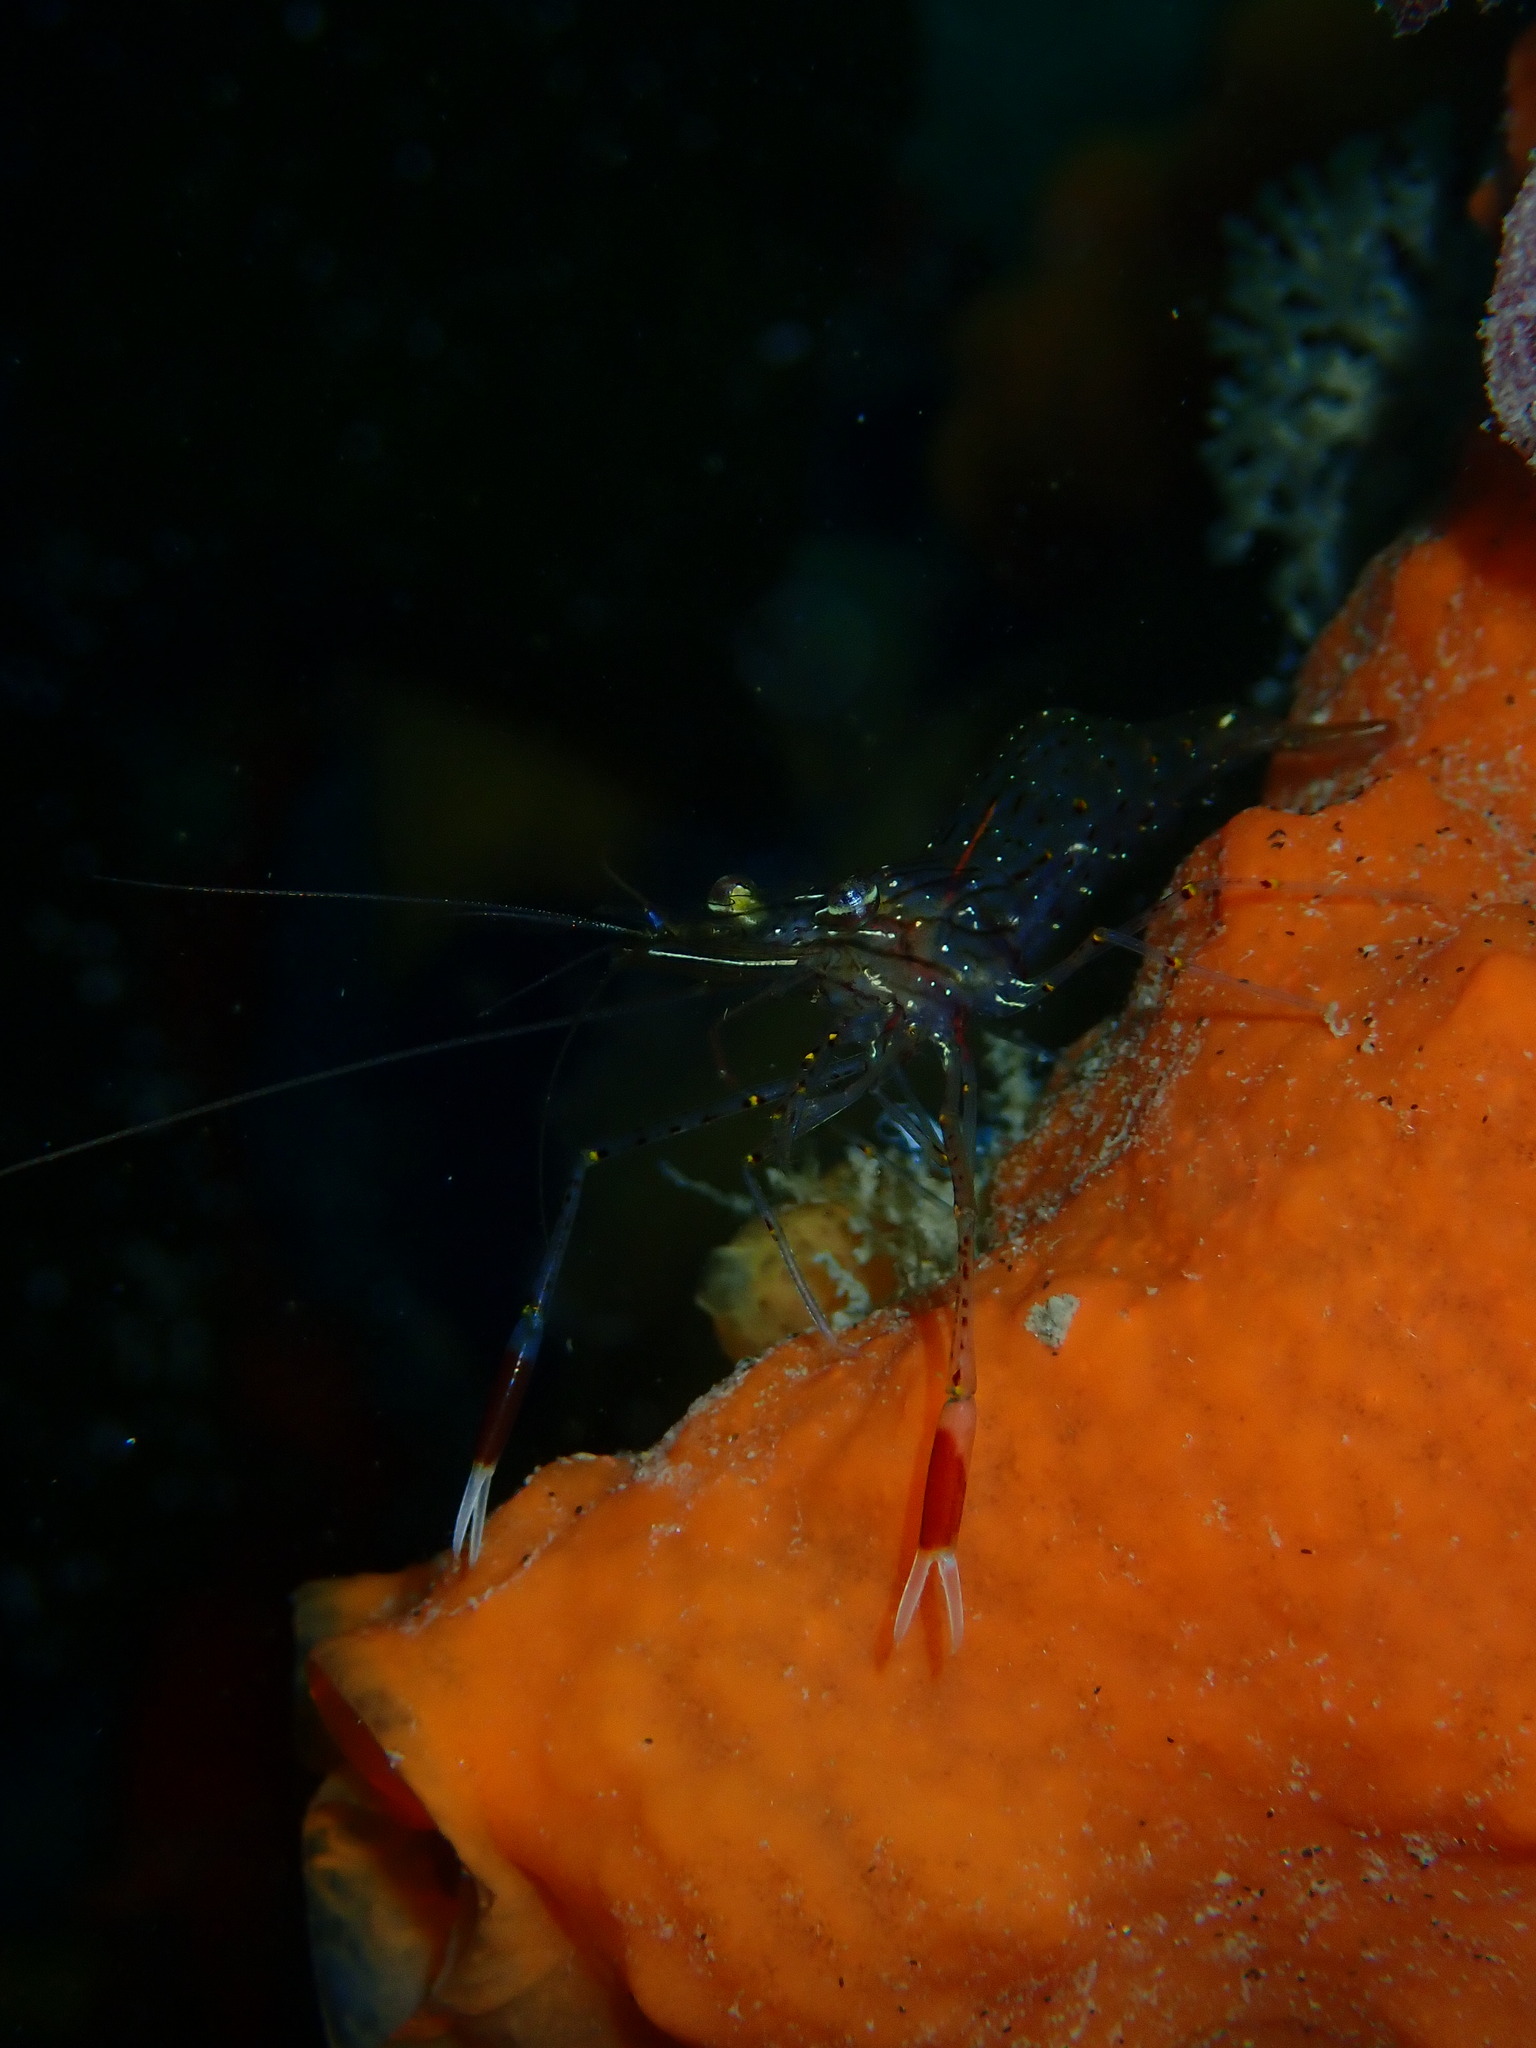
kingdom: Animalia
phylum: Arthropoda
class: Malacostraca
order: Decapoda
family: Palaemonidae
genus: Palaemon
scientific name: Palaemon serenus
